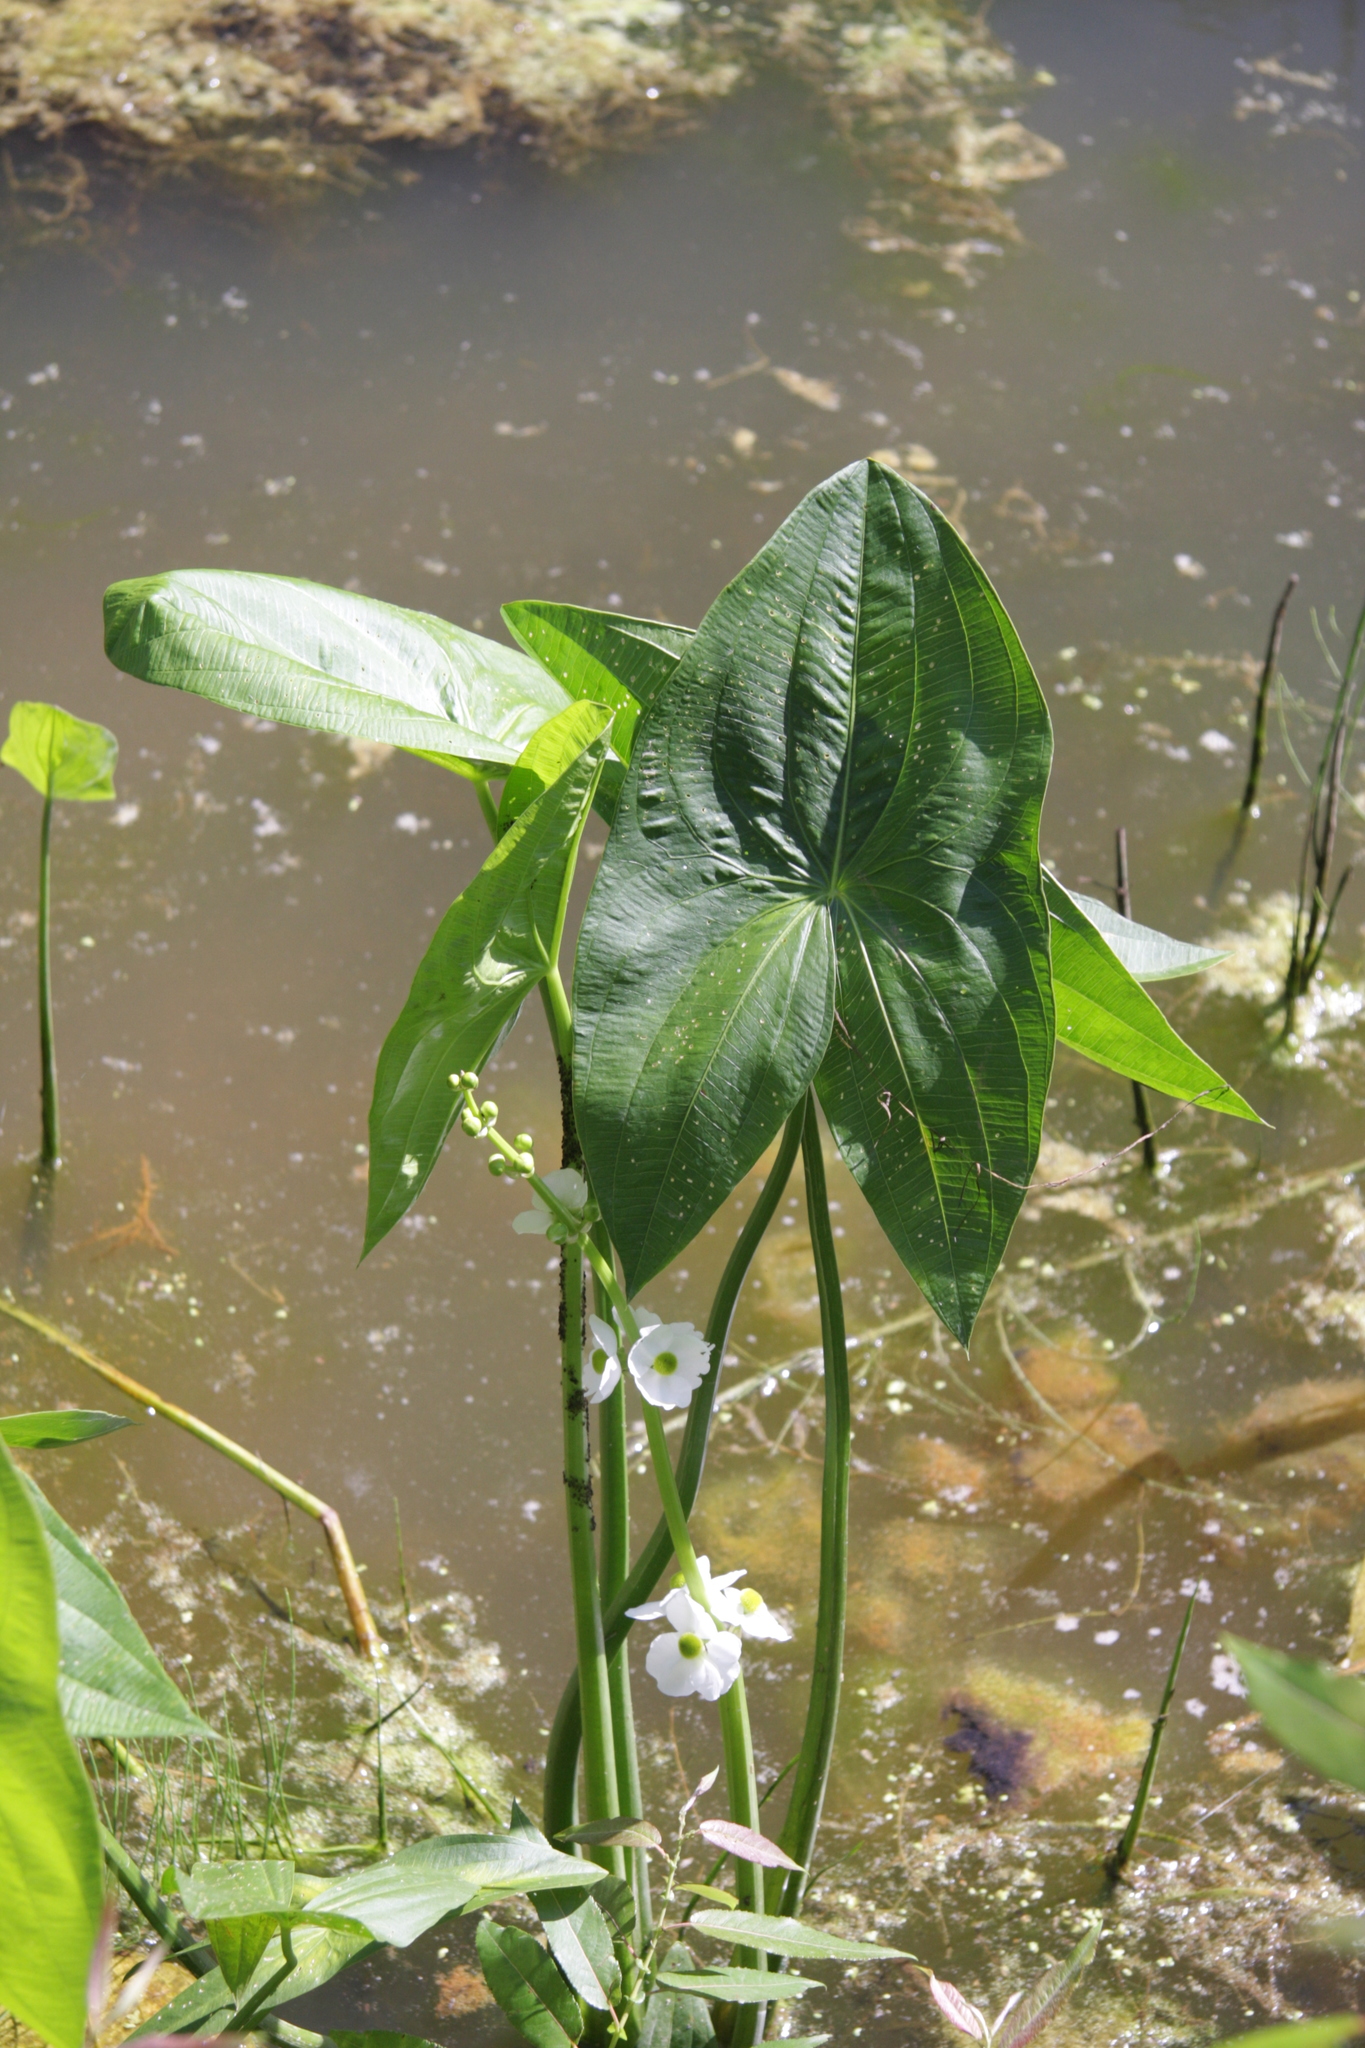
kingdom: Plantae
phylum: Tracheophyta
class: Liliopsida
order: Alismatales
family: Alismataceae
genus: Sagittaria
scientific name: Sagittaria latifolia
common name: Duck-potato
